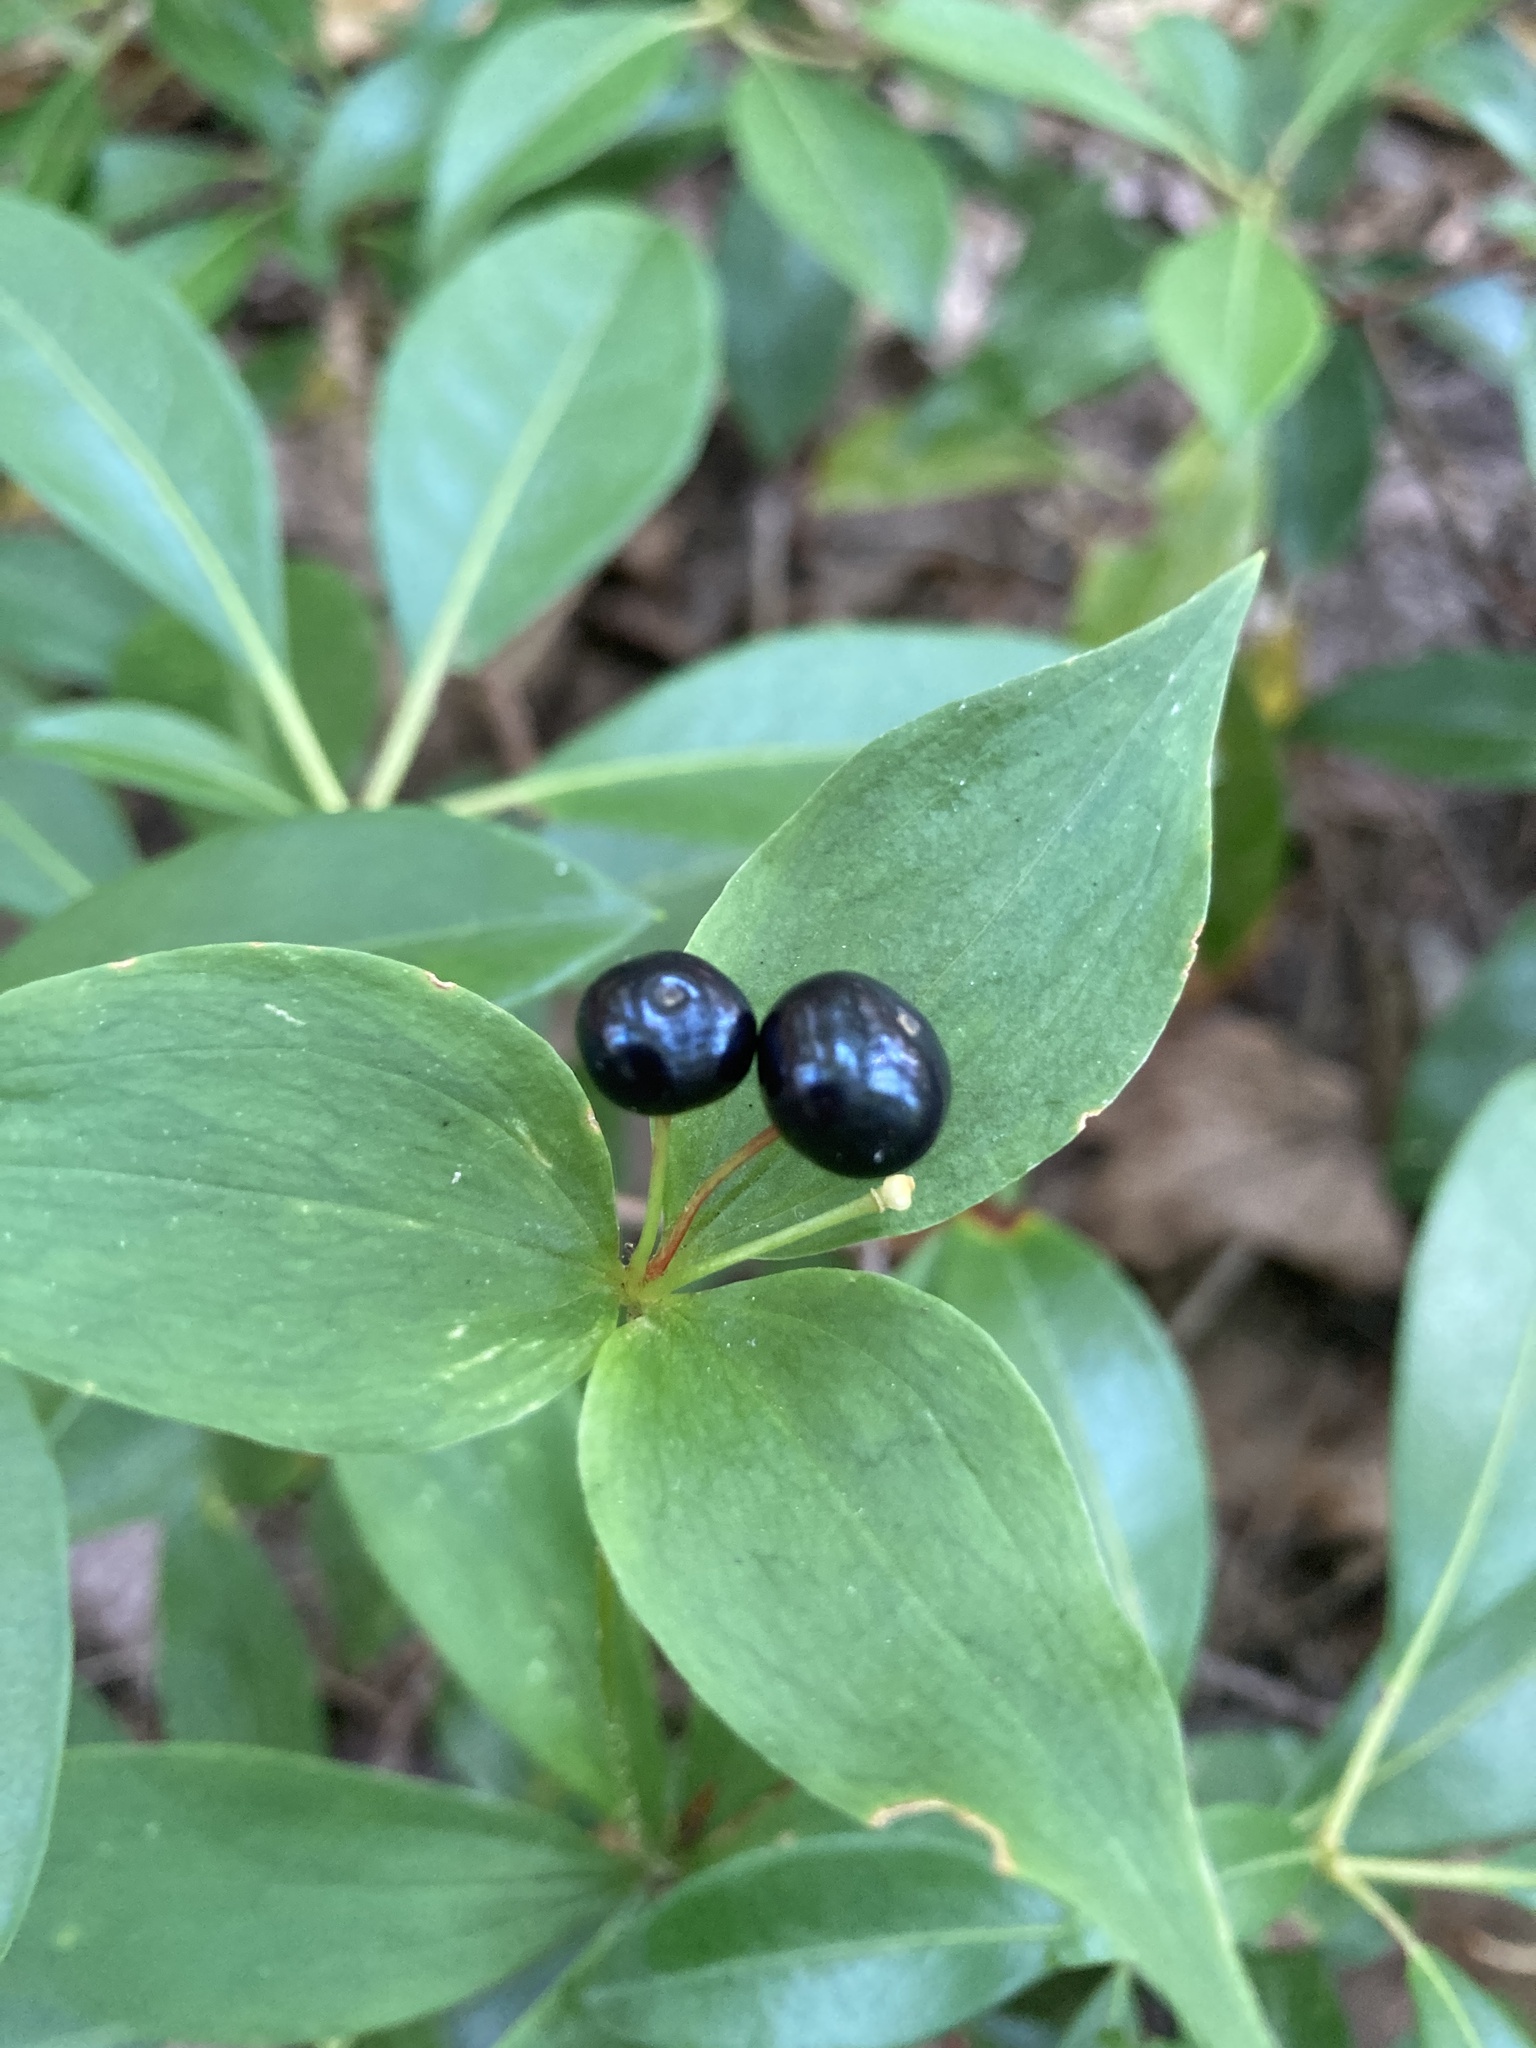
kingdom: Plantae
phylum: Tracheophyta
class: Liliopsida
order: Liliales
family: Liliaceae
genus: Medeola
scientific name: Medeola virginiana
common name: Indian cucumber-root
